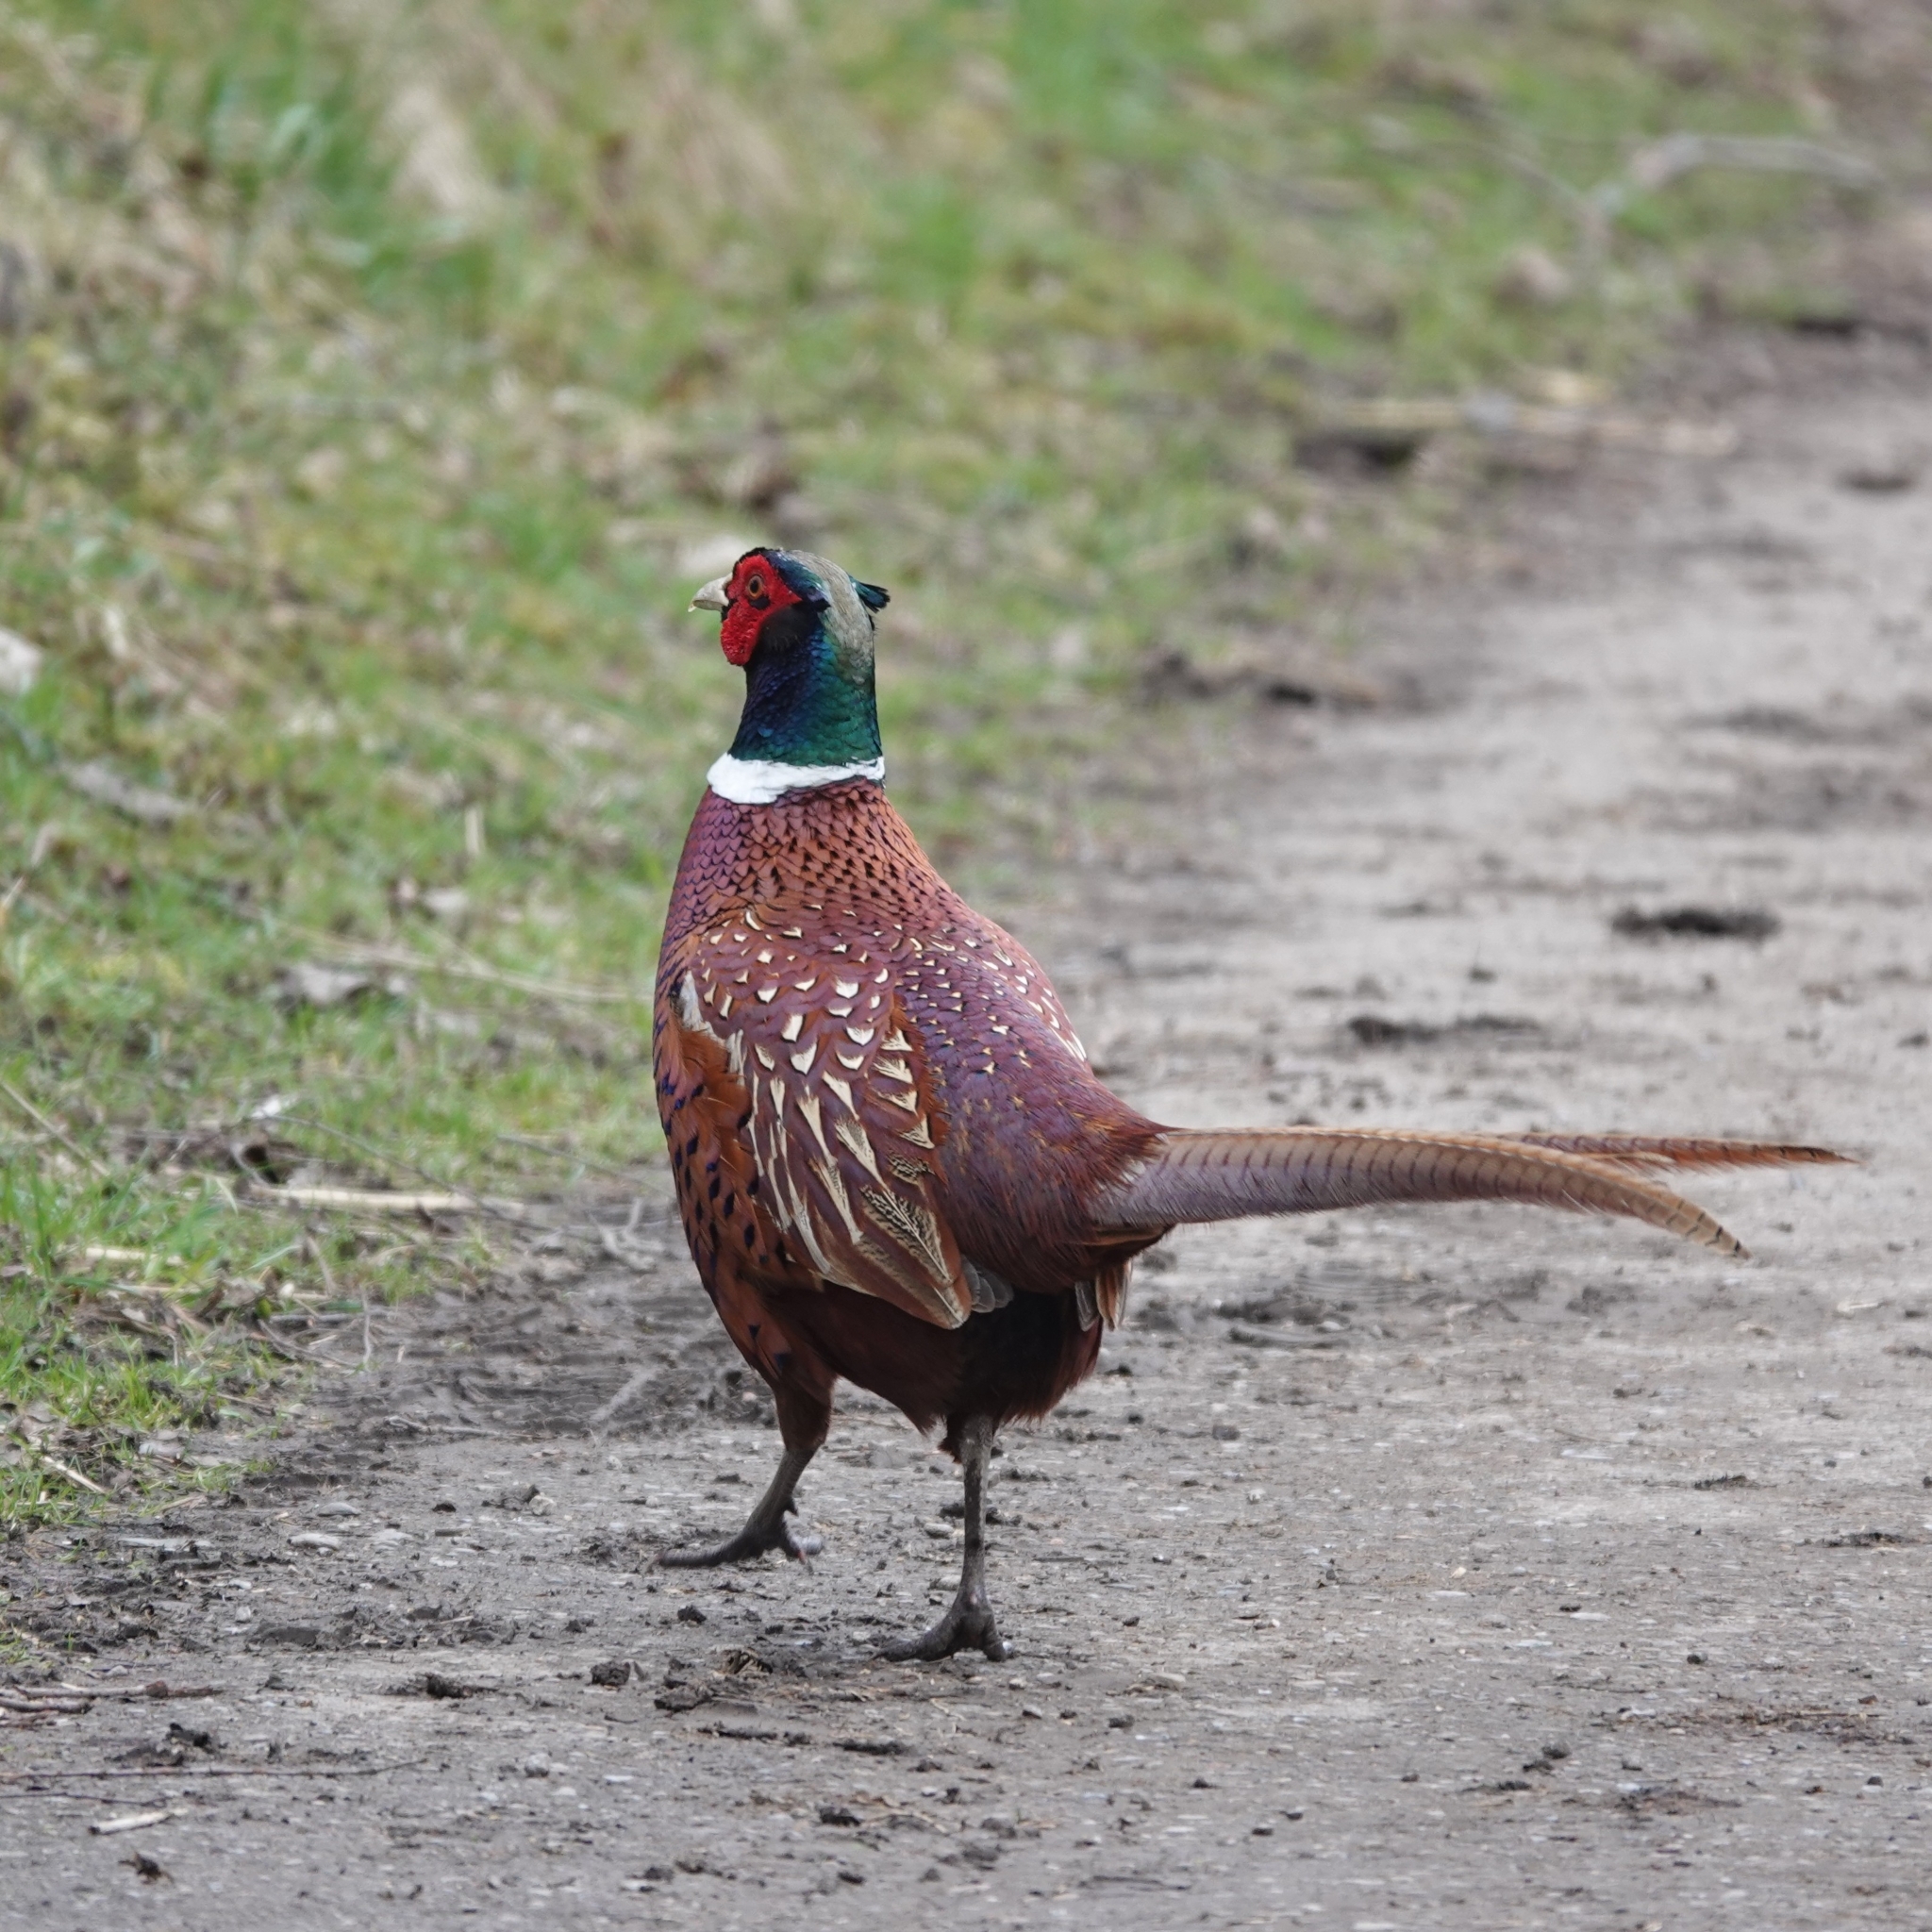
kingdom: Animalia
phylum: Chordata
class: Aves
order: Galliformes
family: Phasianidae
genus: Phasianus
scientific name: Phasianus colchicus
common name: Common pheasant
